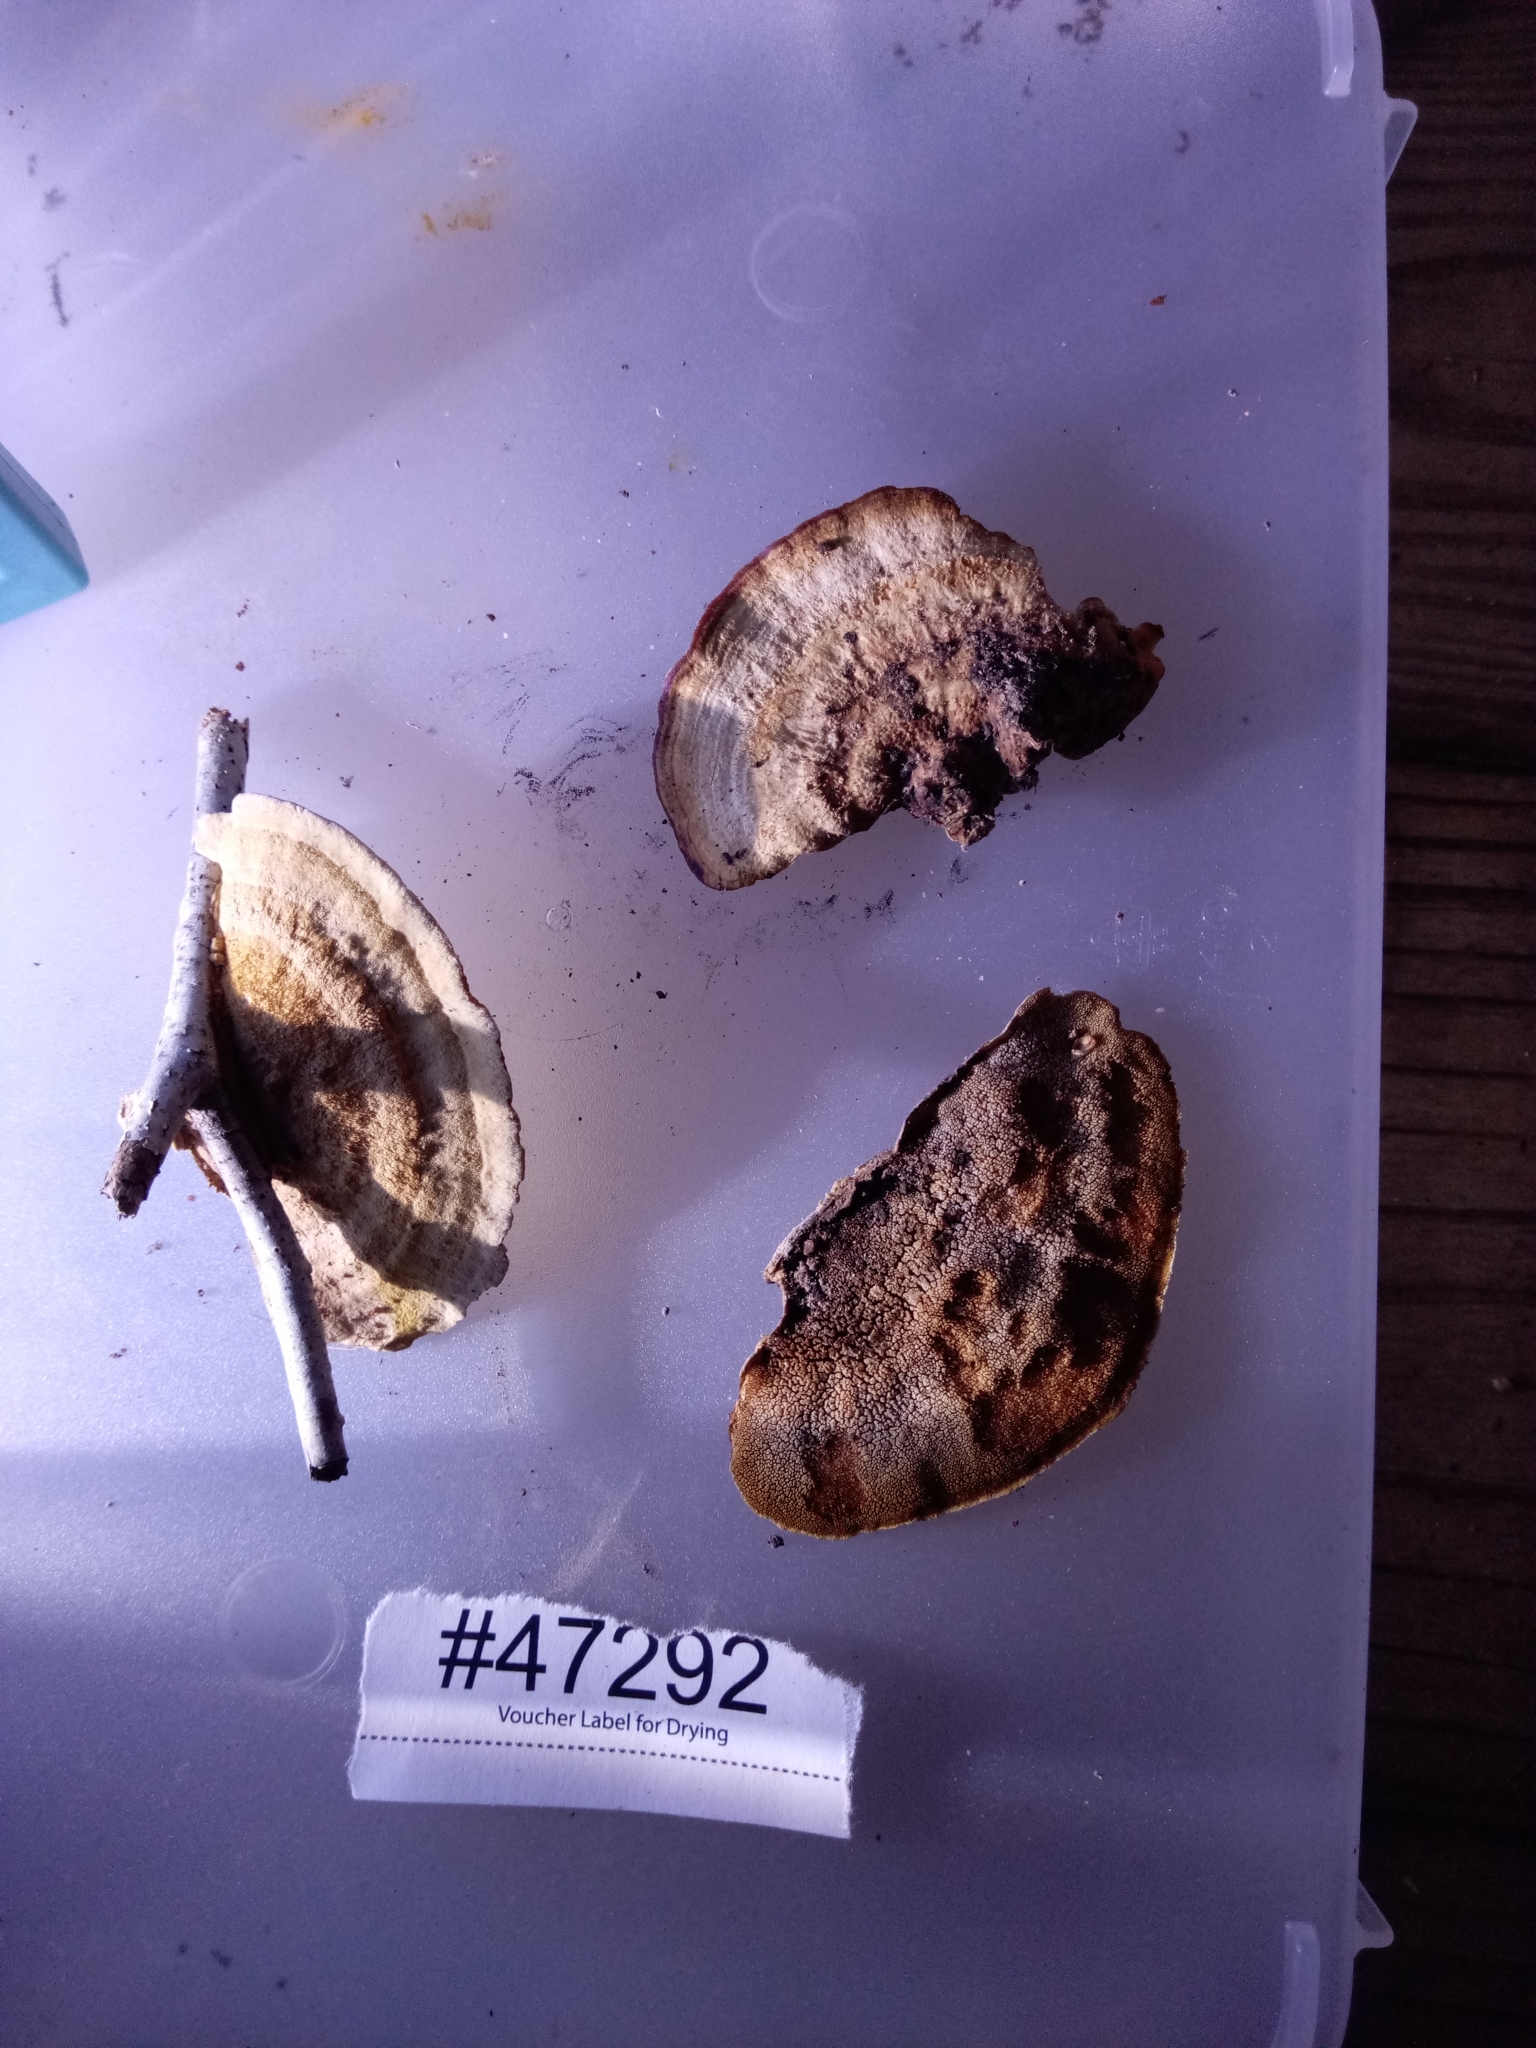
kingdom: Fungi
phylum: Basidiomycota
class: Agaricomycetes
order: Polyporales
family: Steccherinaceae
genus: Metuloidea
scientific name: Metuloidea reniformis
